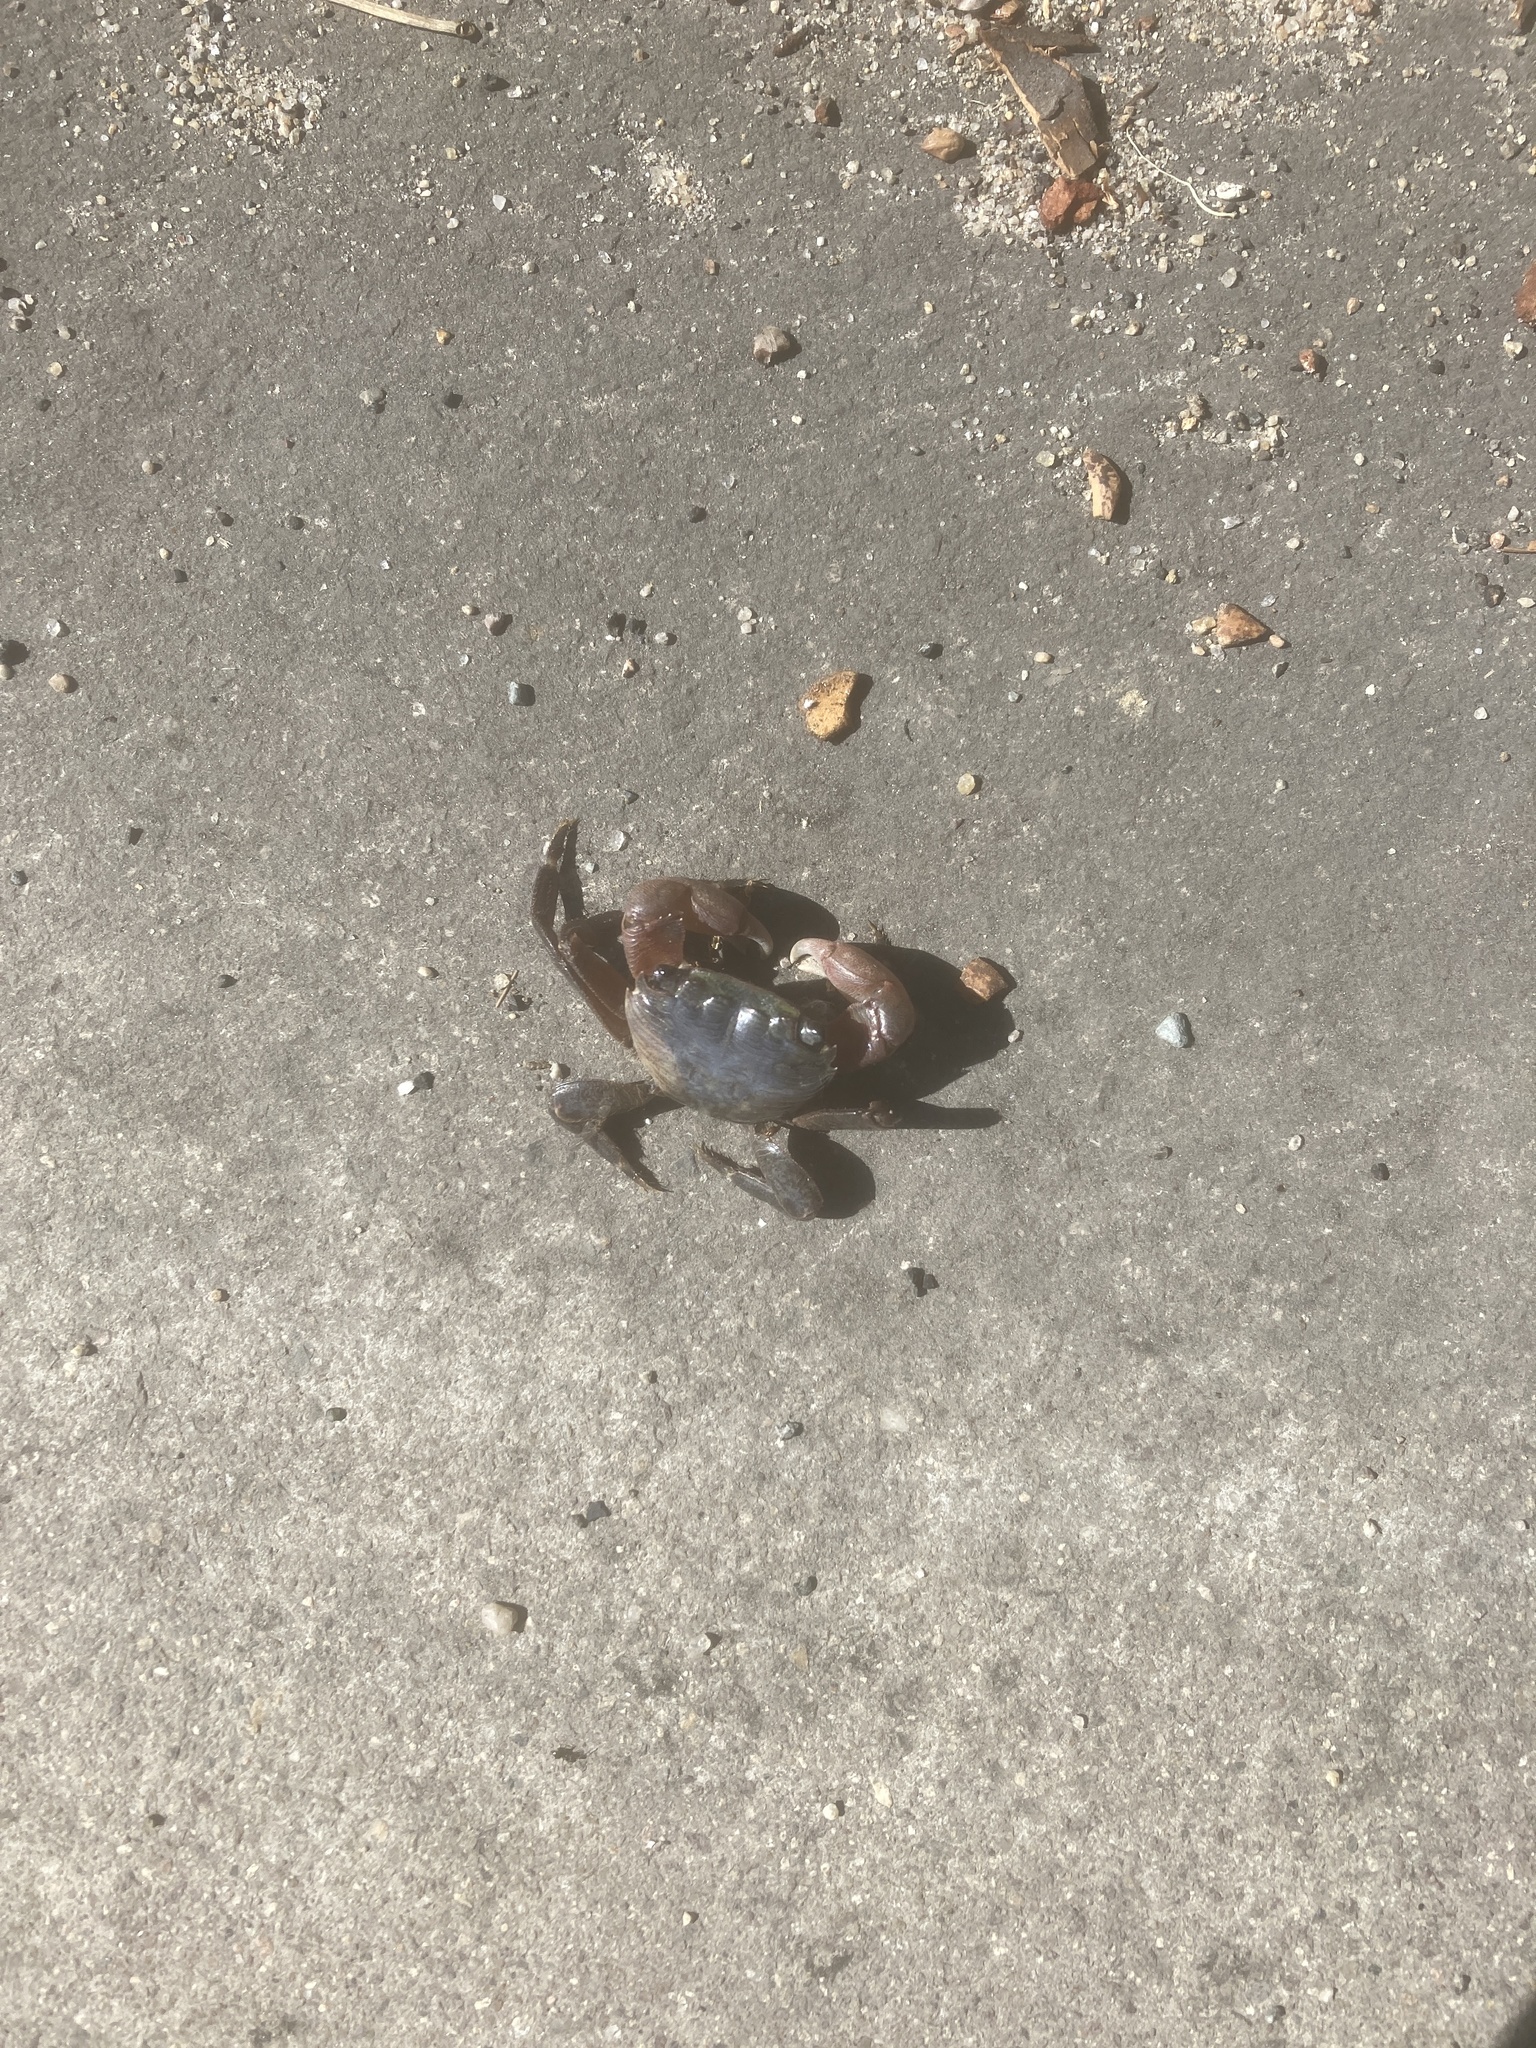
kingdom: Animalia
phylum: Arthropoda
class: Malacostraca
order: Decapoda
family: Grapsidae
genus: Pachygrapsus
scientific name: Pachygrapsus crassipes
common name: Striped shore crab
